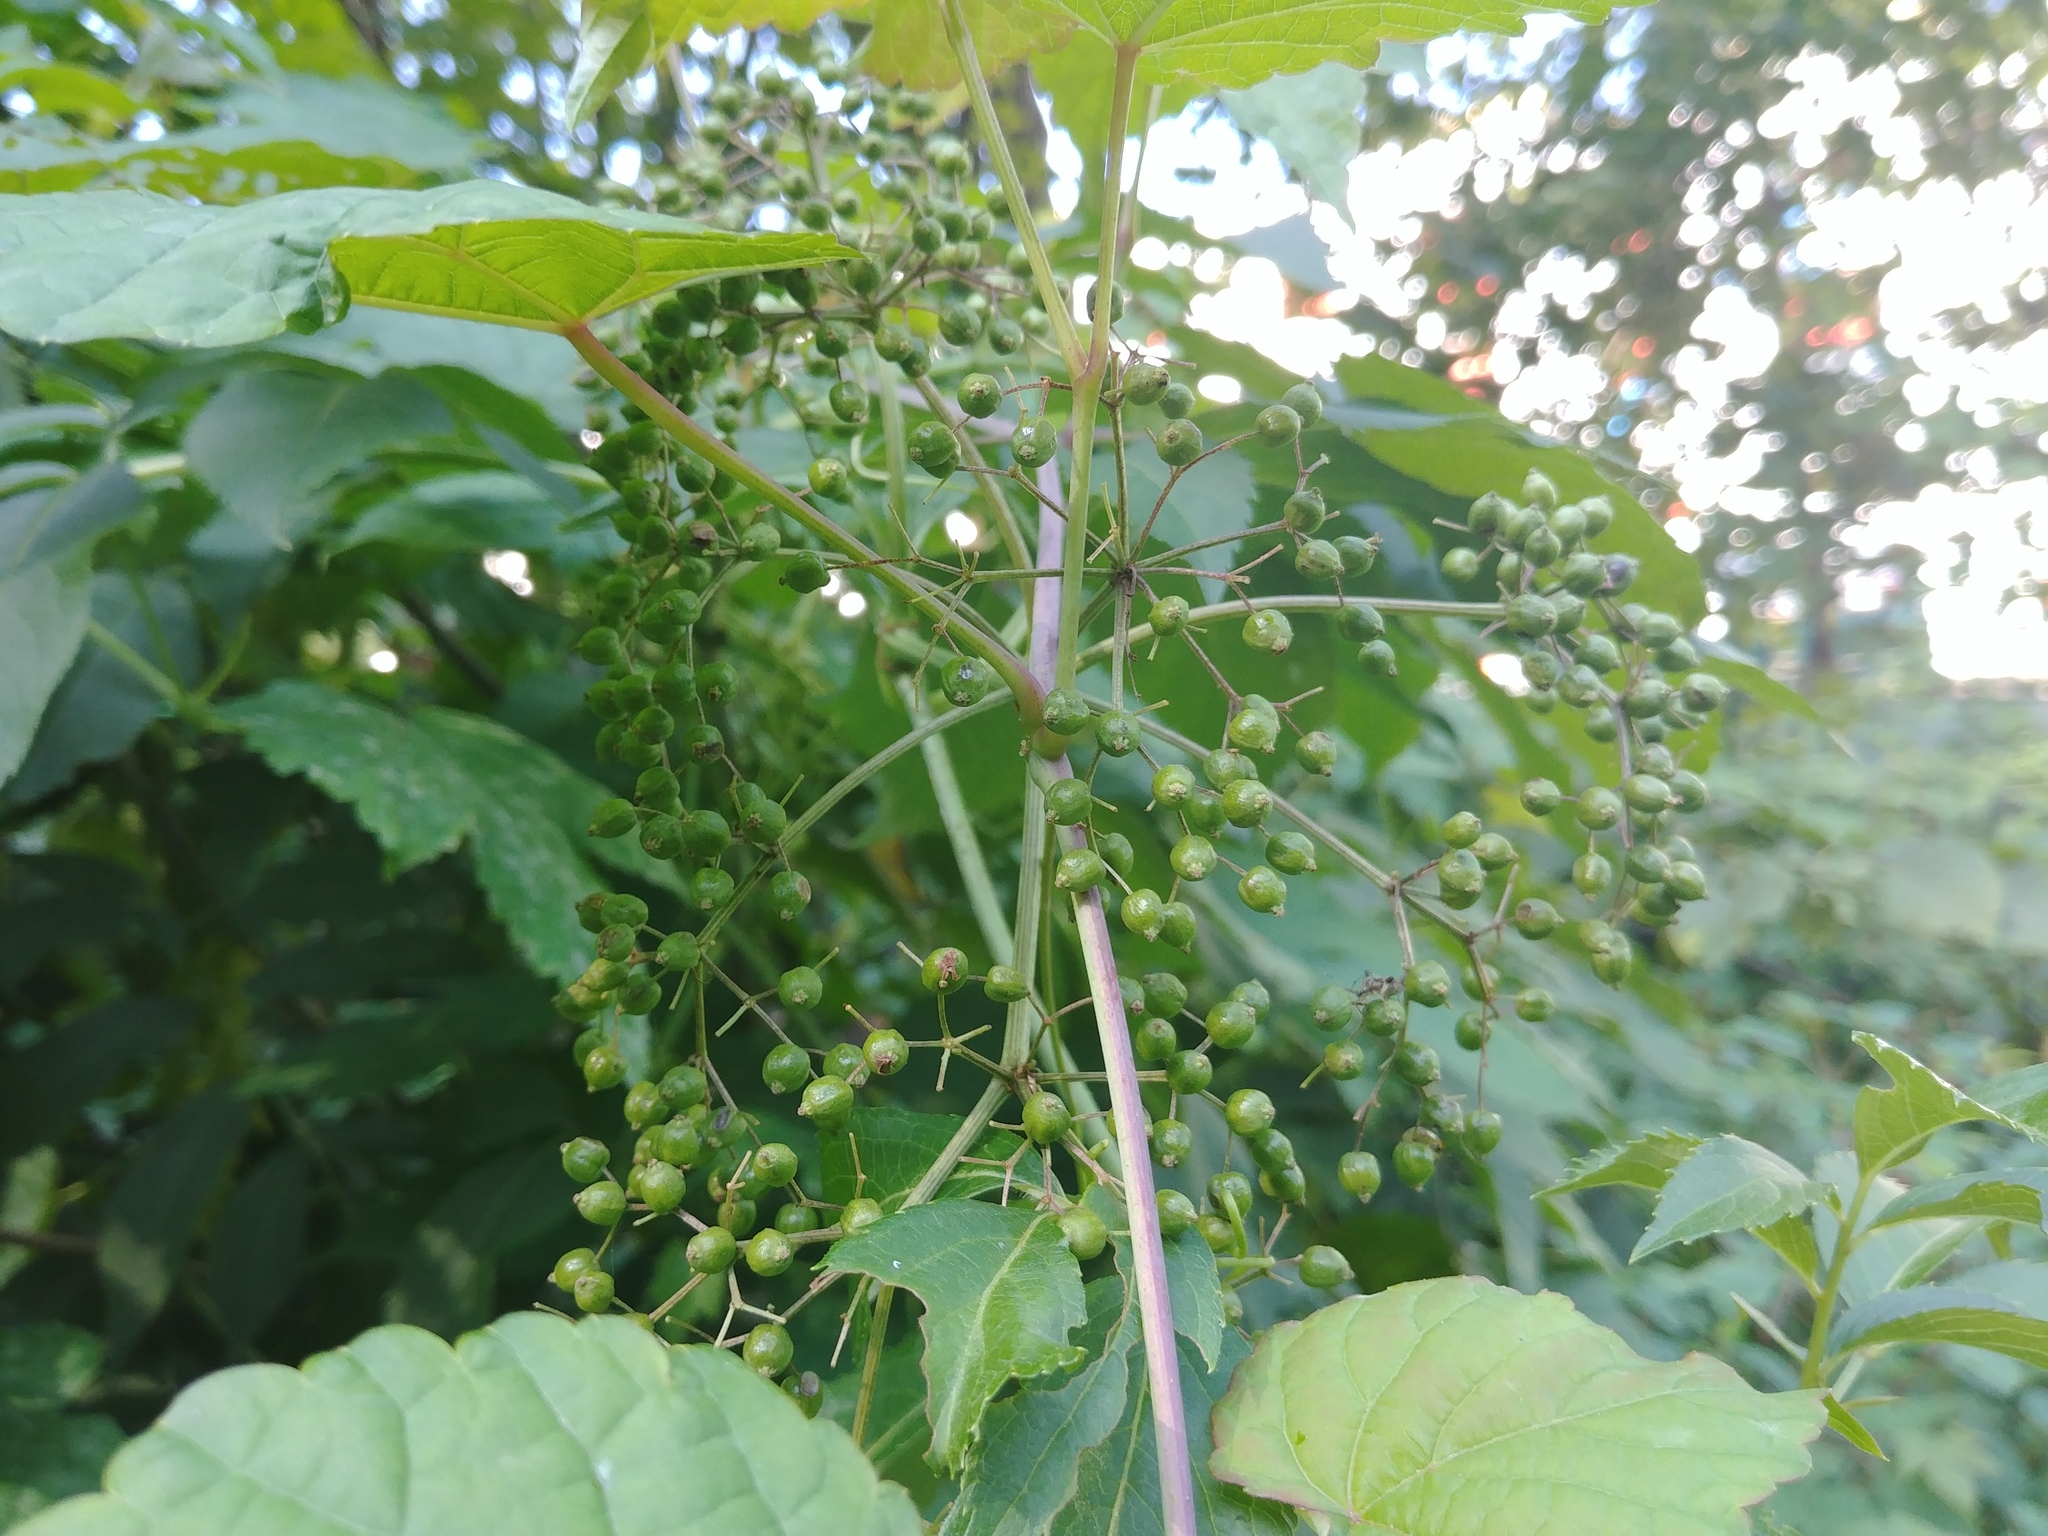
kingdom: Plantae
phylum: Tracheophyta
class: Magnoliopsida
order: Dipsacales
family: Viburnaceae
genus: Sambucus
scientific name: Sambucus canadensis
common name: American elder
